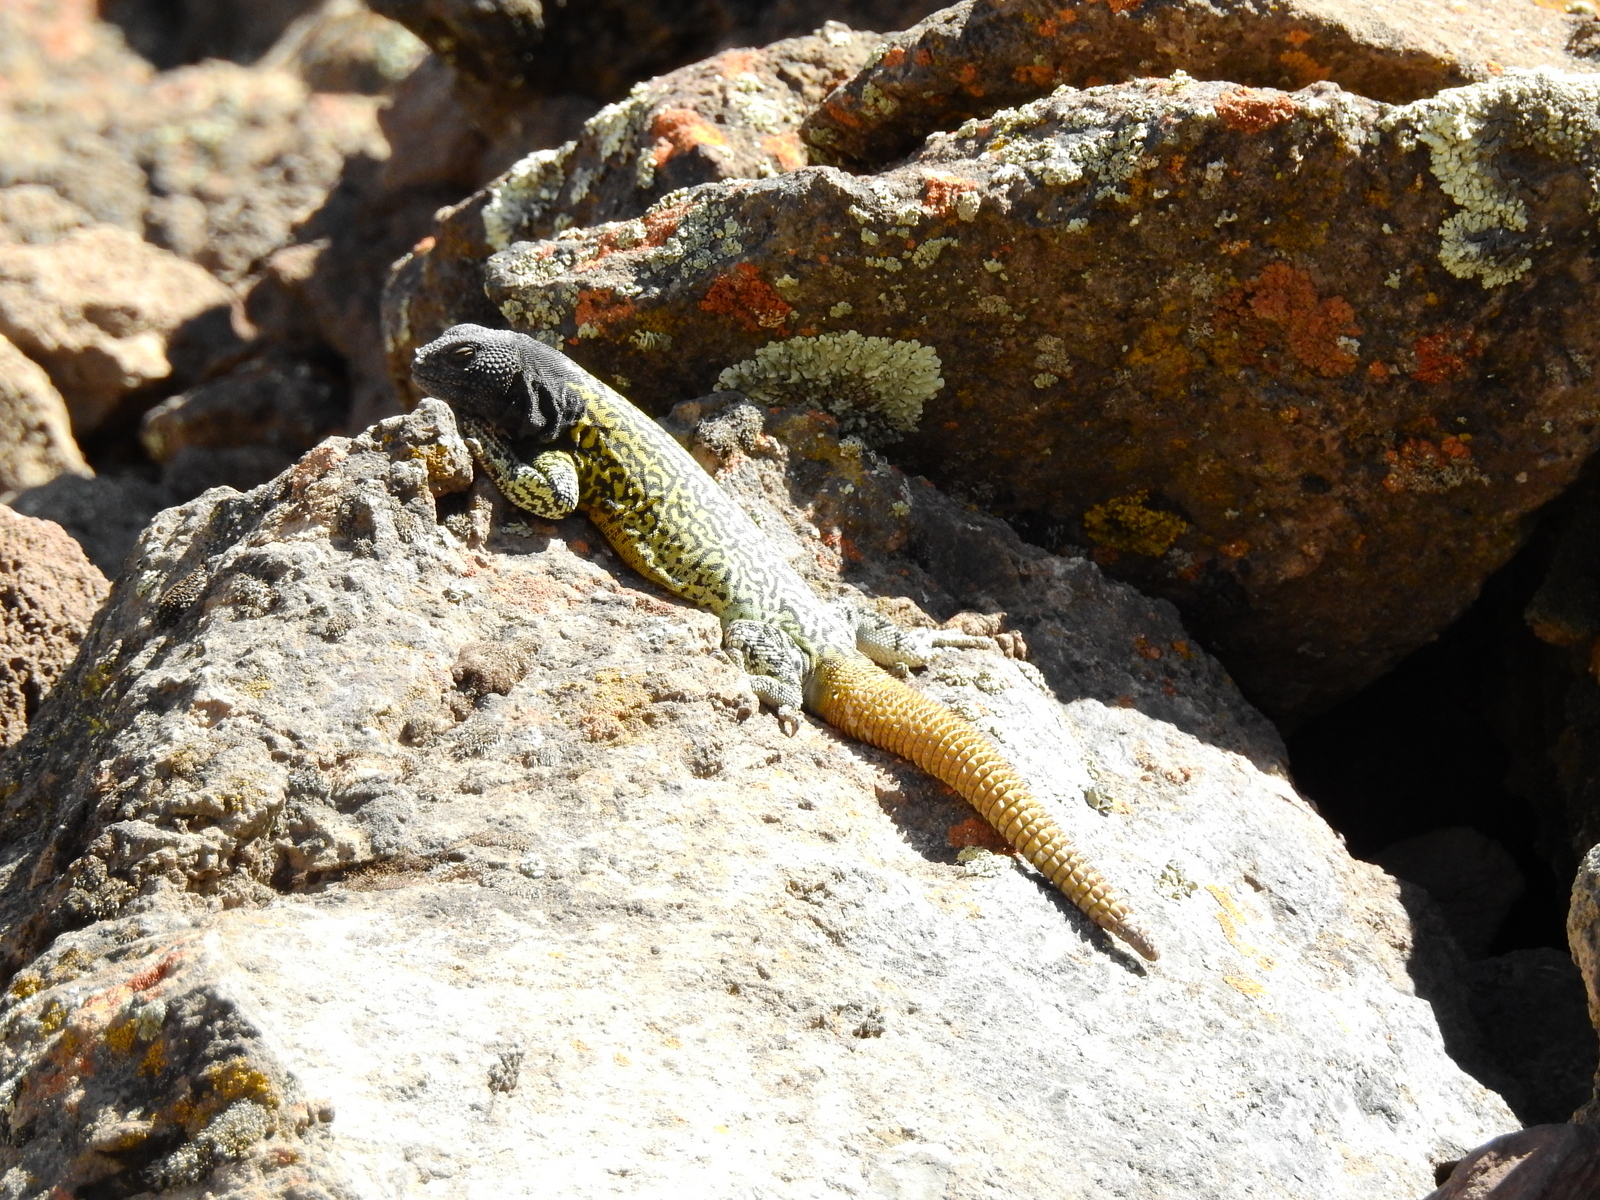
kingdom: Animalia
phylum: Chordata
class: Squamata
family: Liolaemidae
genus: Phymaturus
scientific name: Phymaturus verdugo
